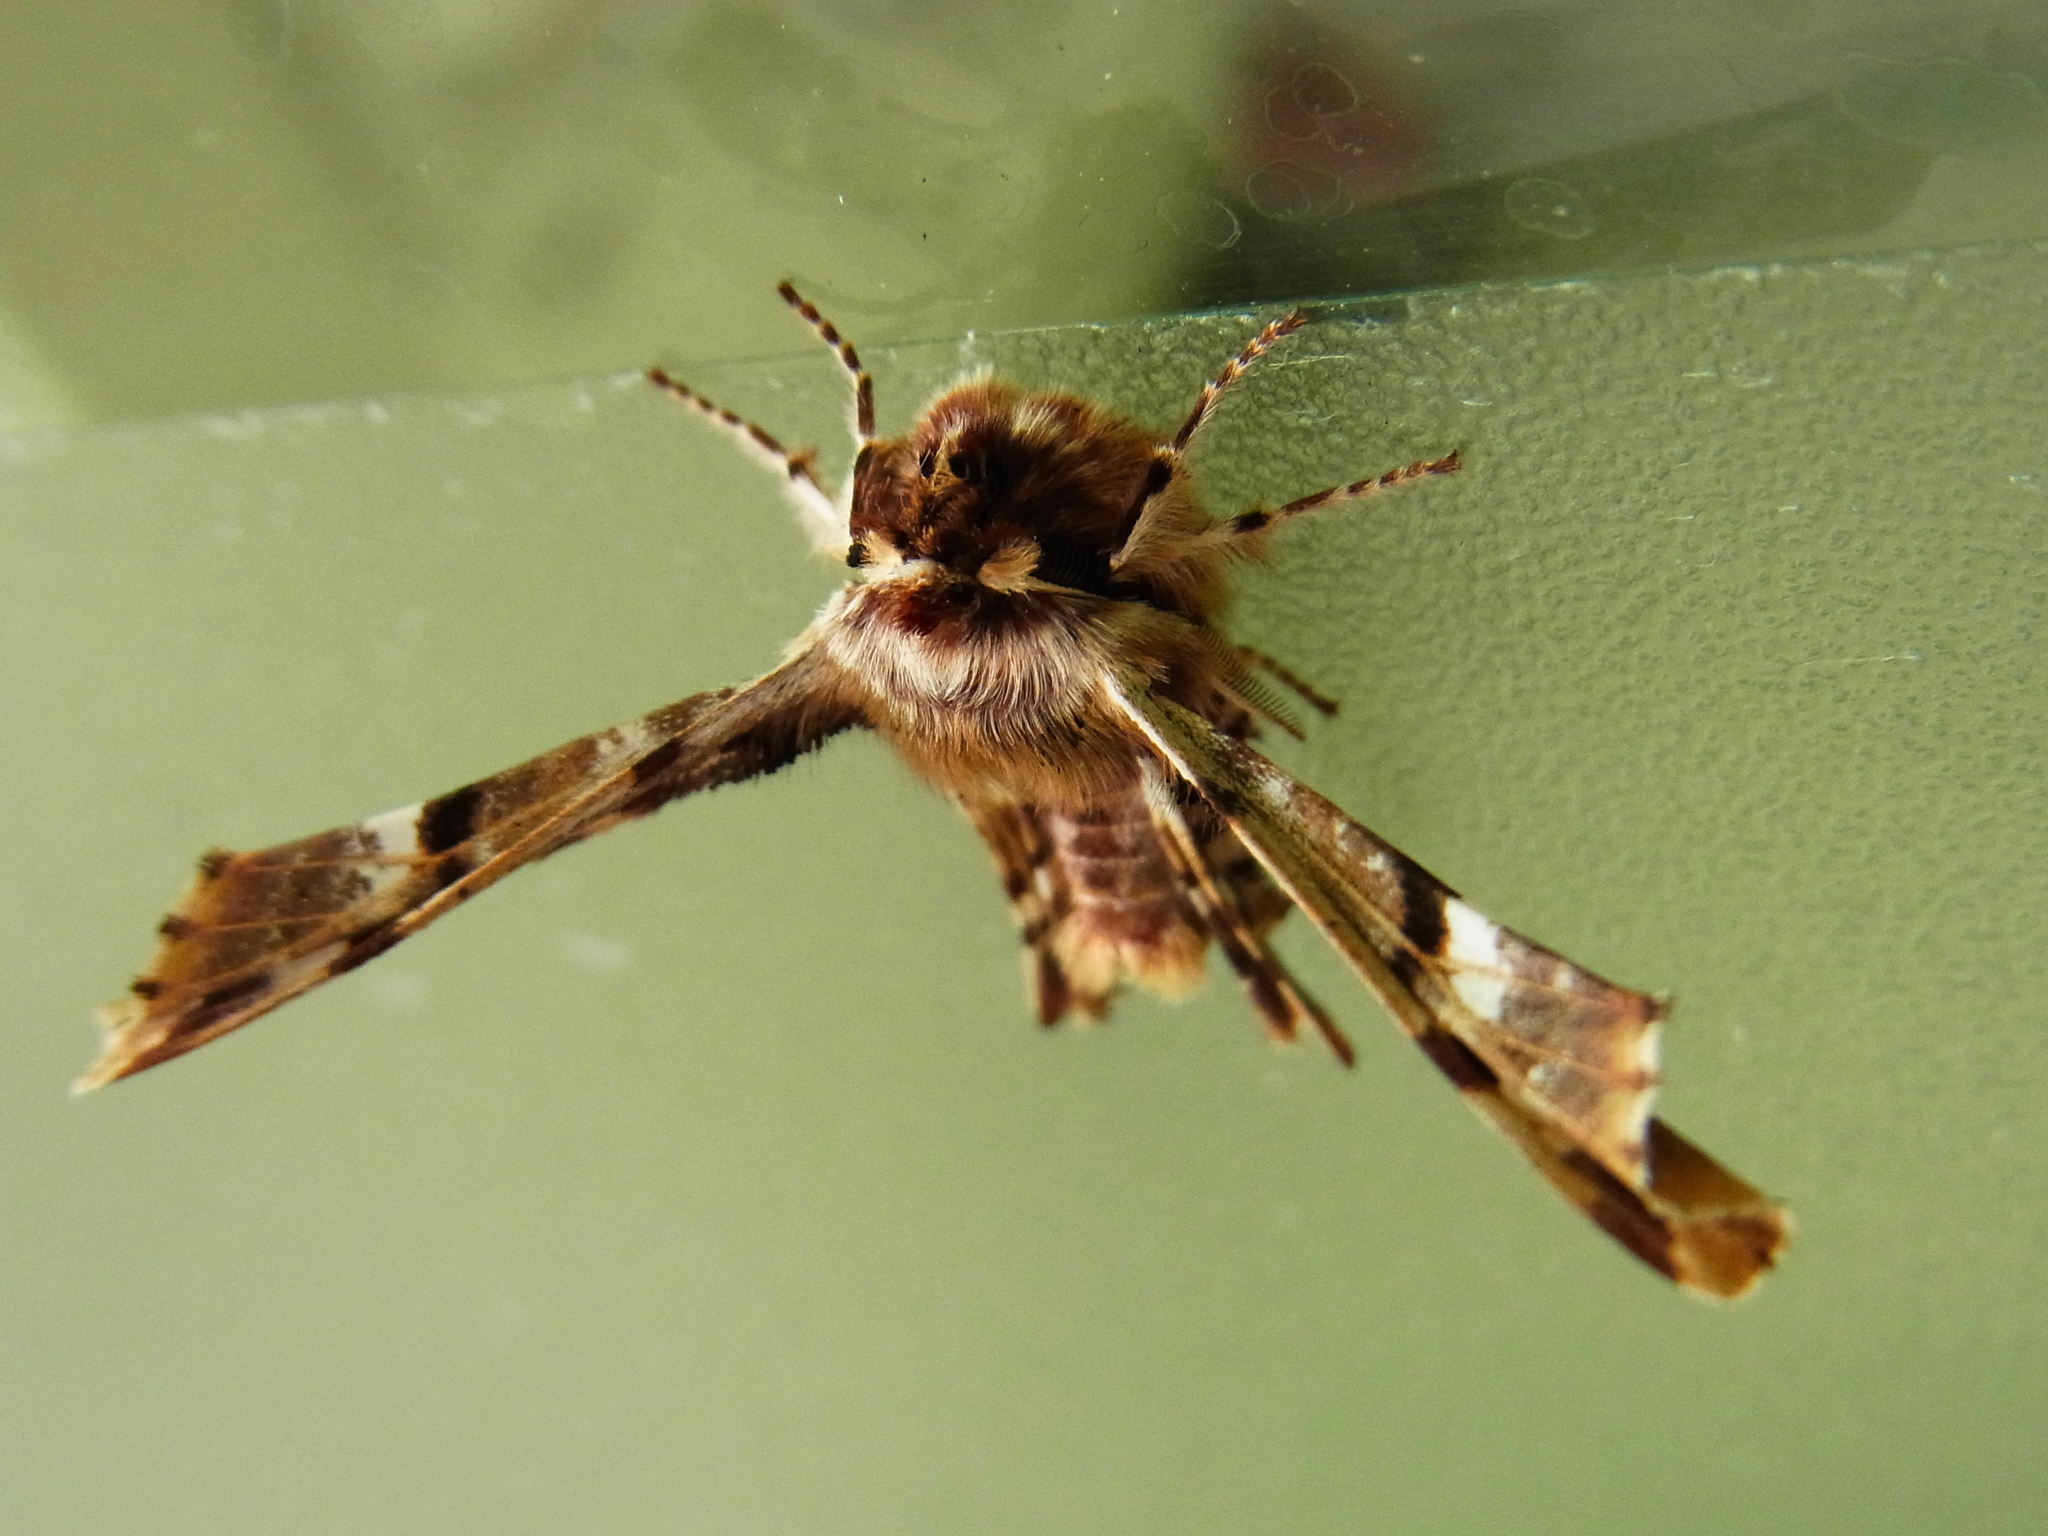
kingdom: Animalia
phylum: Arthropoda
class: Insecta
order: Lepidoptera
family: Geometridae
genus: Apochima
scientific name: Apochima juglansiaria
